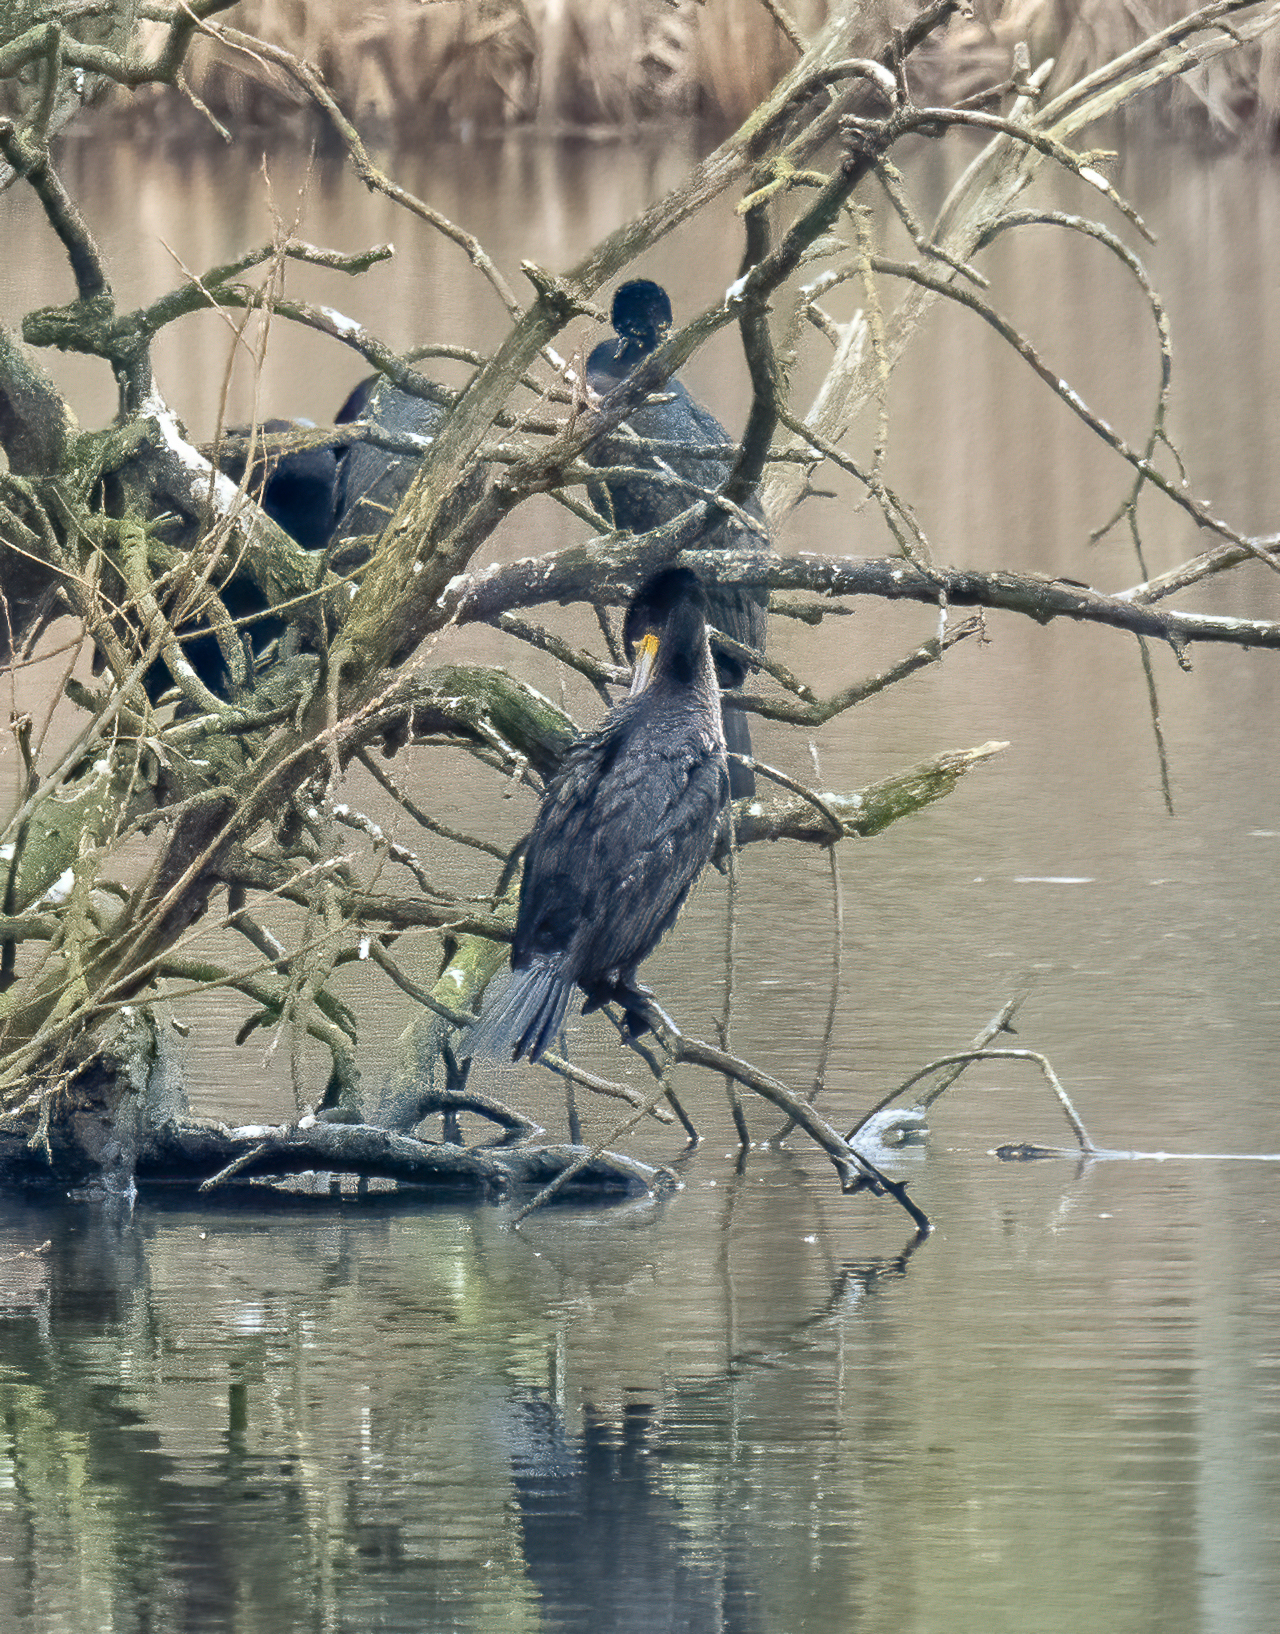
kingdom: Animalia
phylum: Chordata
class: Aves
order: Suliformes
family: Phalacrocoracidae
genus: Phalacrocorax
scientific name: Phalacrocorax carbo
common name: Great cormorant
